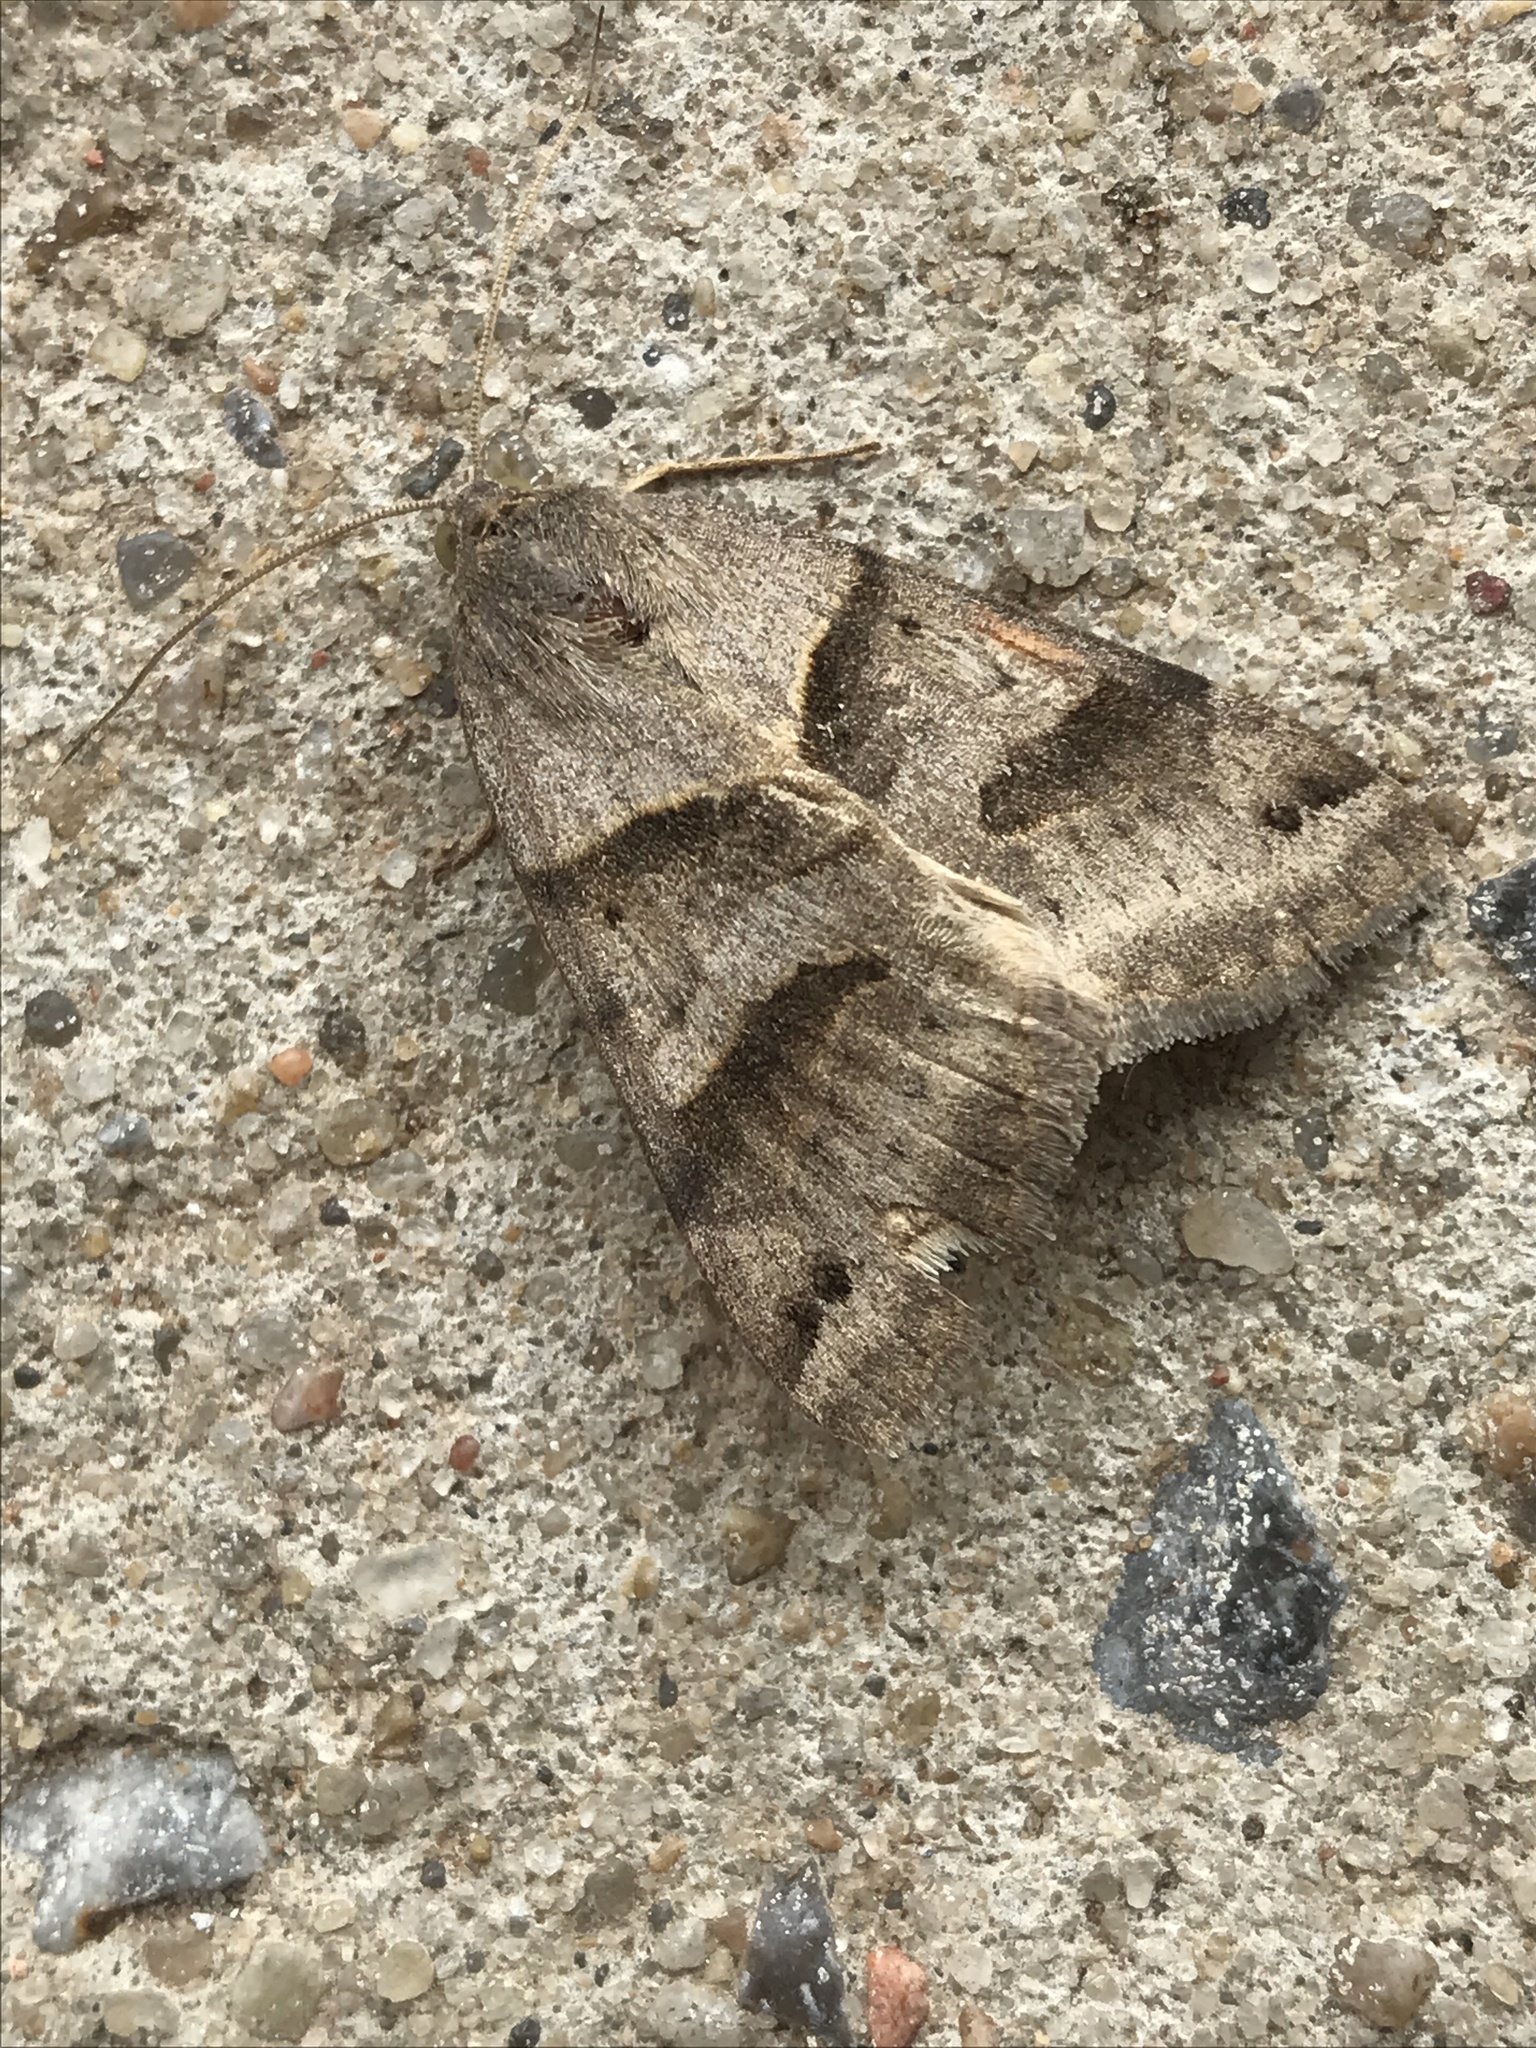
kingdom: Animalia
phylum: Arthropoda
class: Insecta
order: Lepidoptera
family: Erebidae
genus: Caenurgina
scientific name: Caenurgina erechtea
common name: Forage looper moth
